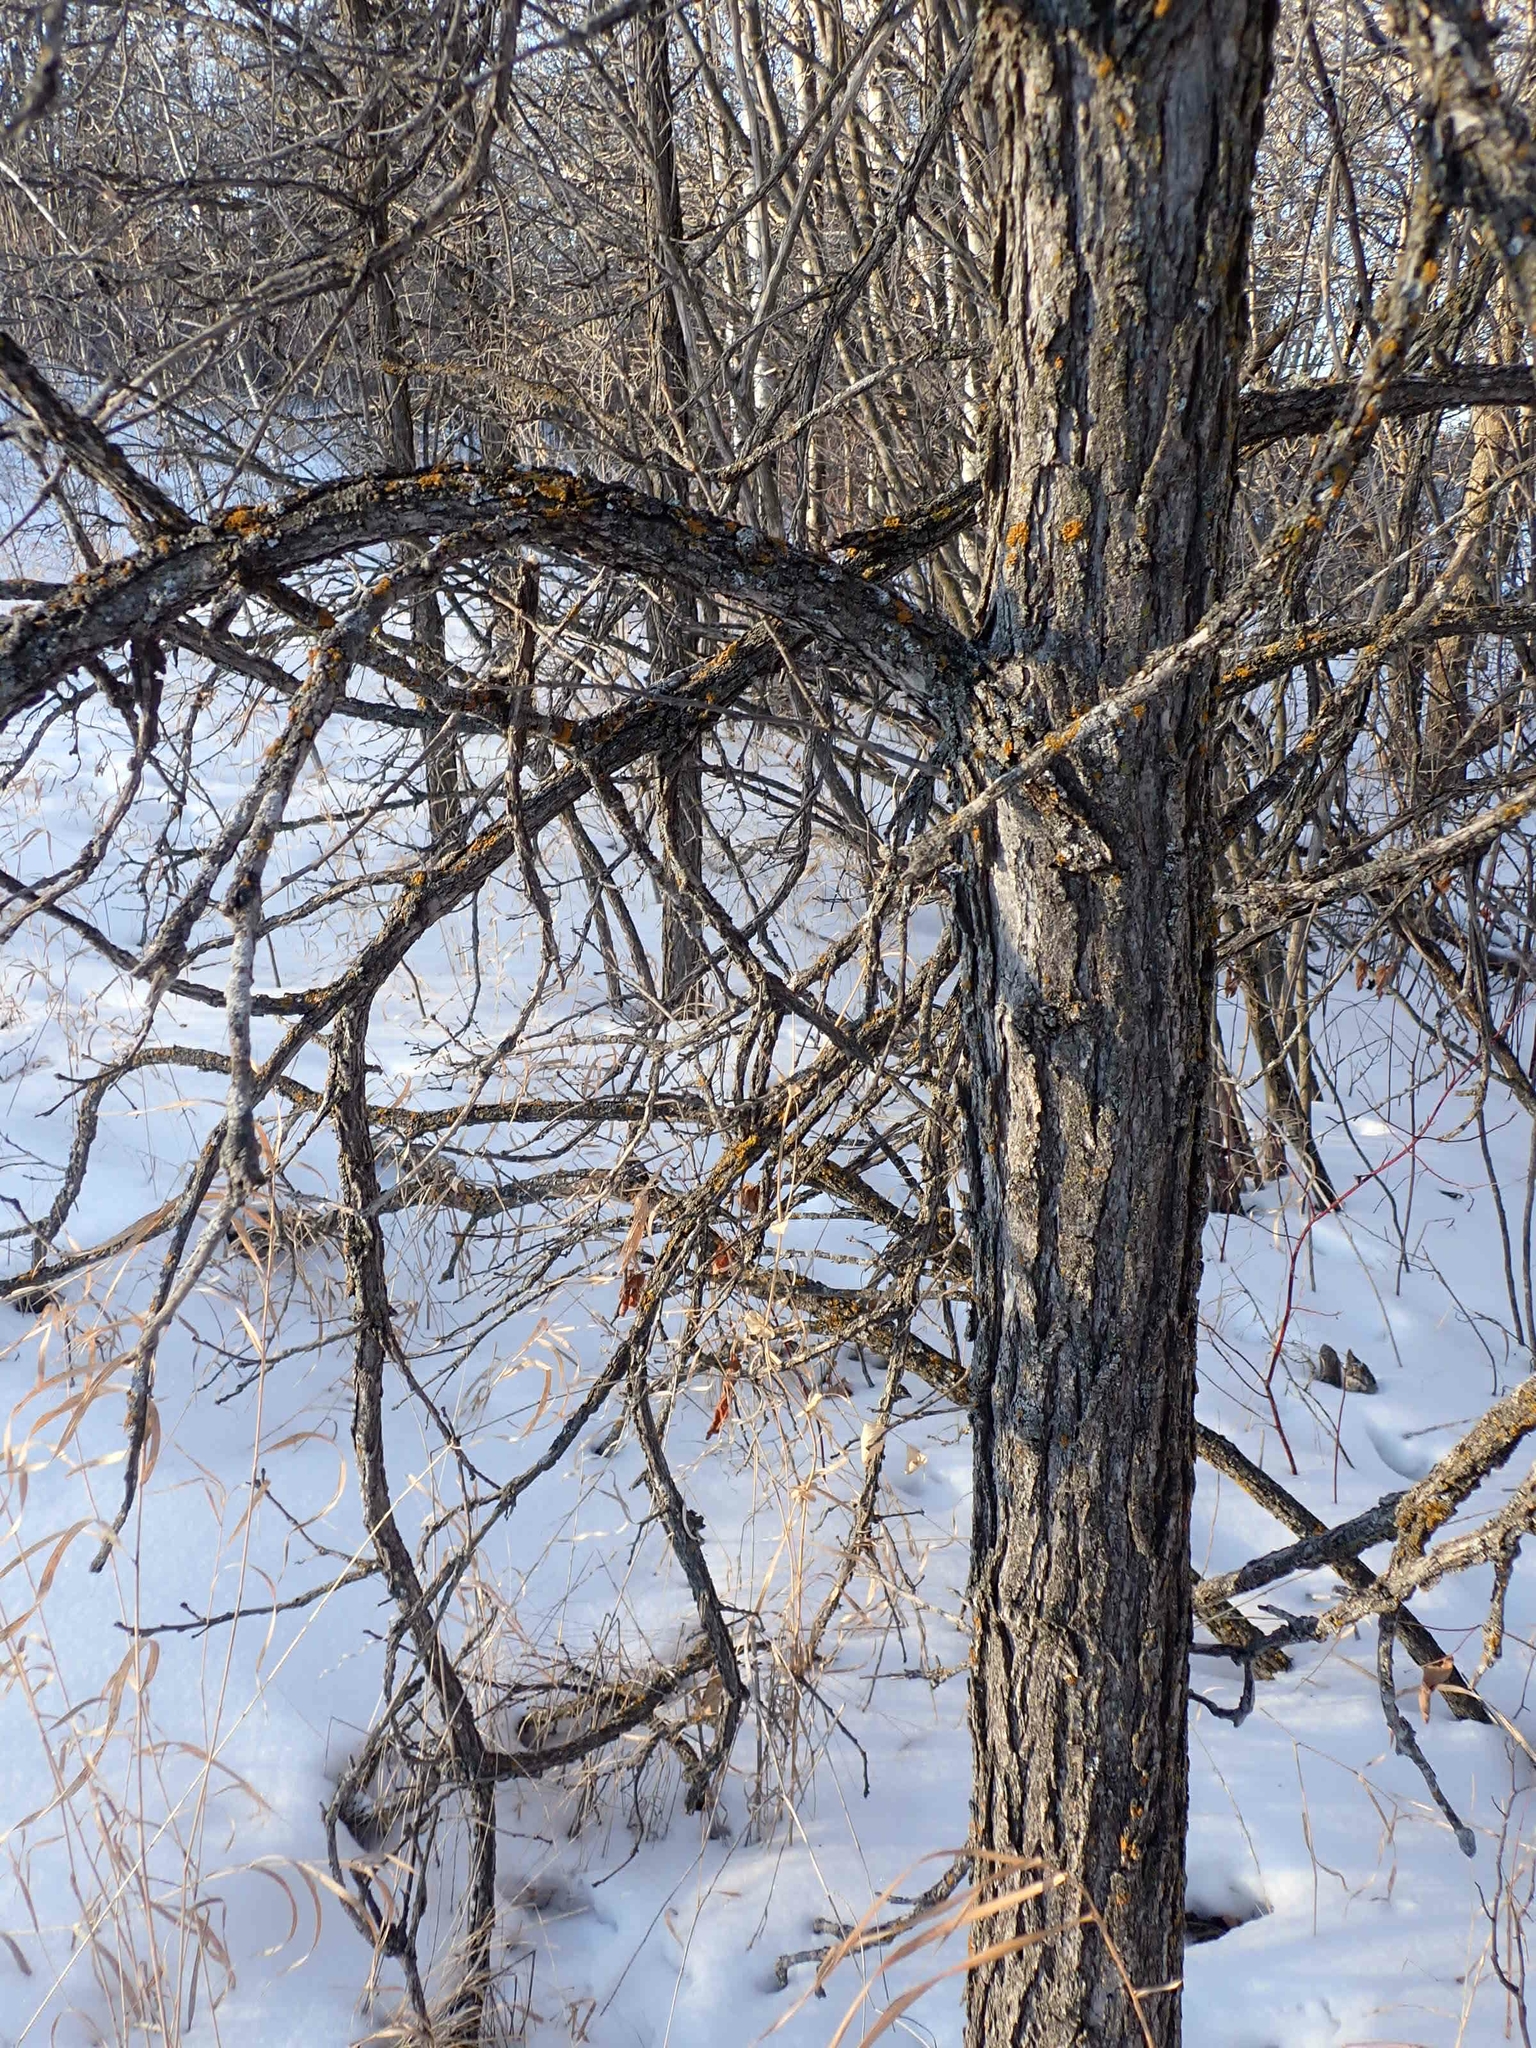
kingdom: Plantae
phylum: Tracheophyta
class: Magnoliopsida
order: Fagales
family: Fagaceae
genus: Quercus
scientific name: Quercus macrocarpa
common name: Bur oak
